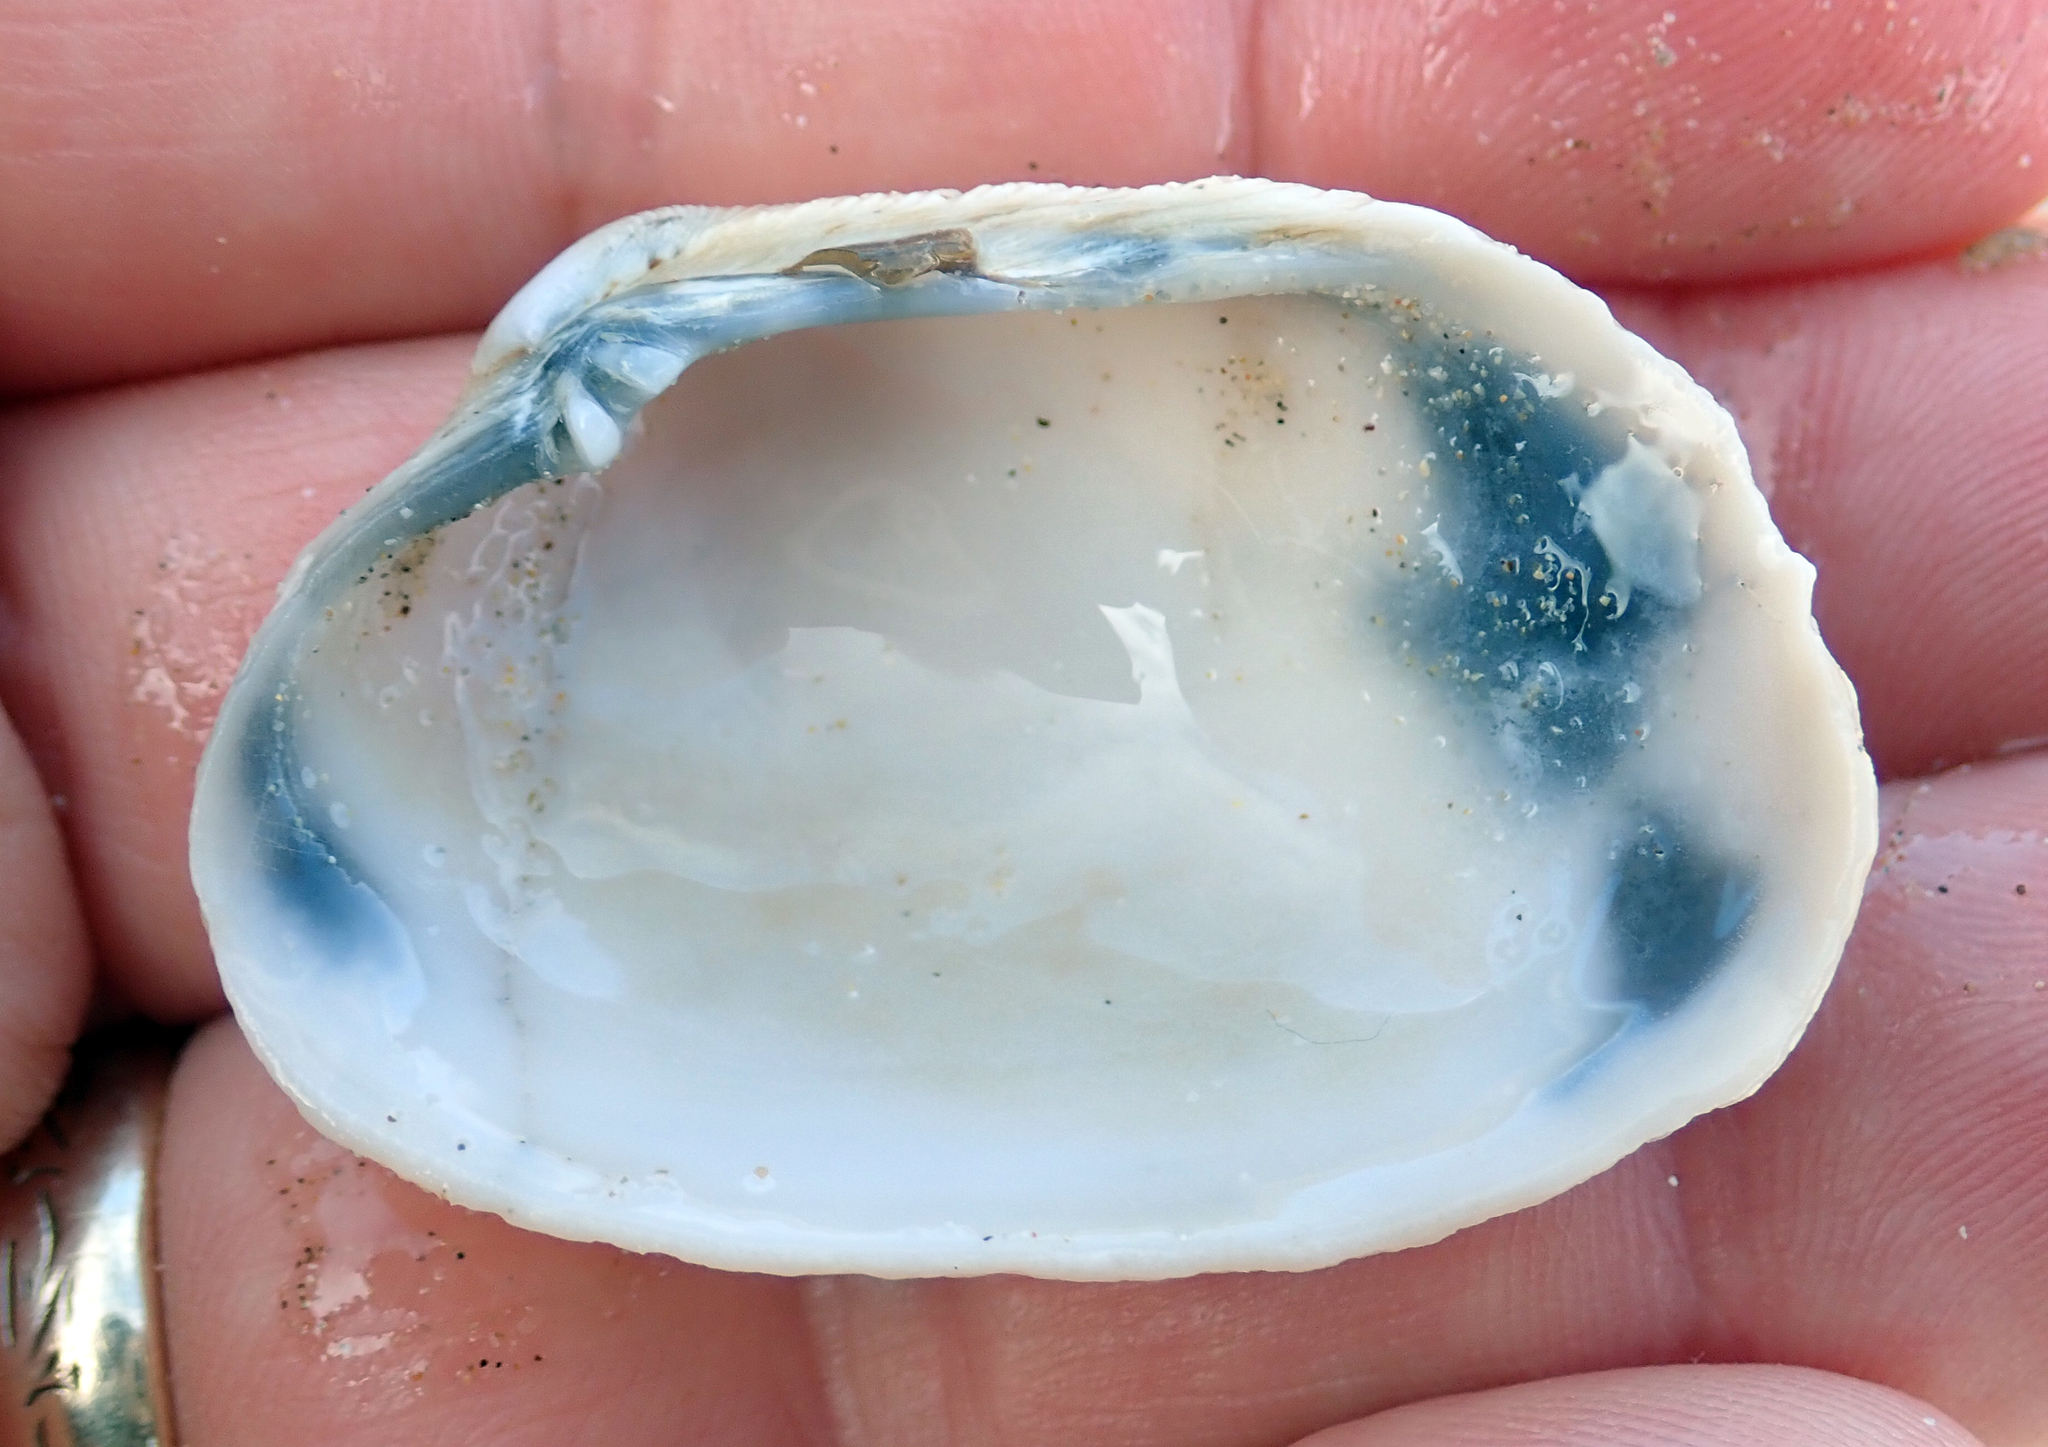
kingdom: Animalia
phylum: Mollusca
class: Bivalvia
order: Venerida
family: Veneridae
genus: Irus
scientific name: Irus reflexus
